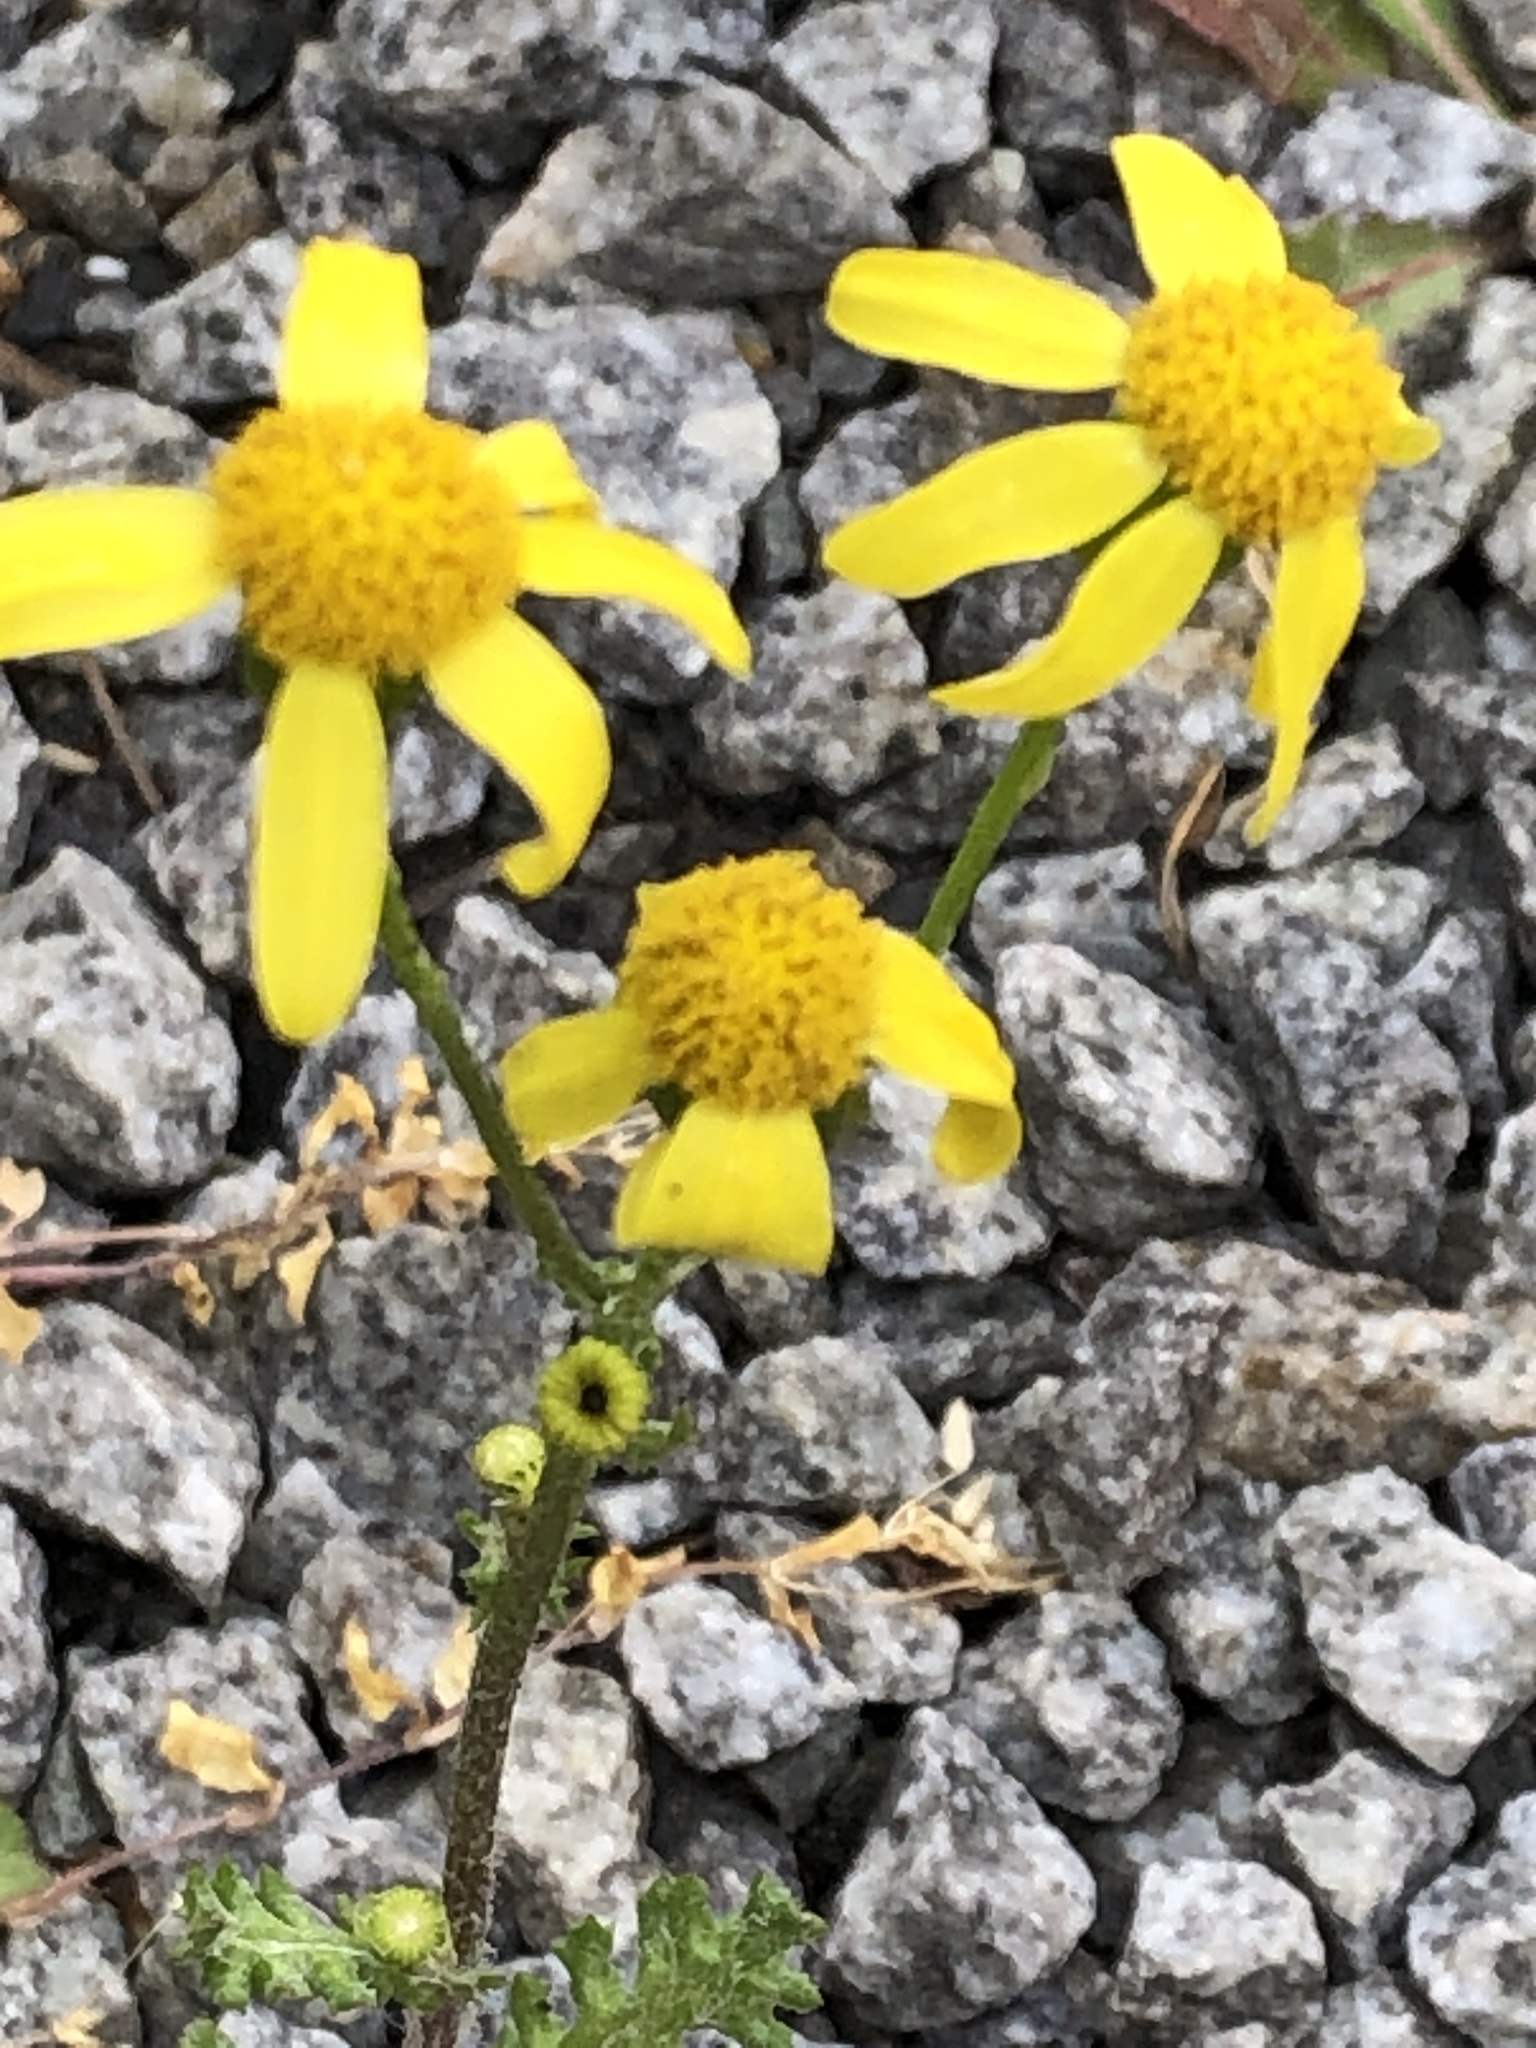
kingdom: Plantae
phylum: Tracheophyta
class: Magnoliopsida
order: Asterales
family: Asteraceae
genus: Senecio
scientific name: Senecio vernalis
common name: Eastern groundsel
